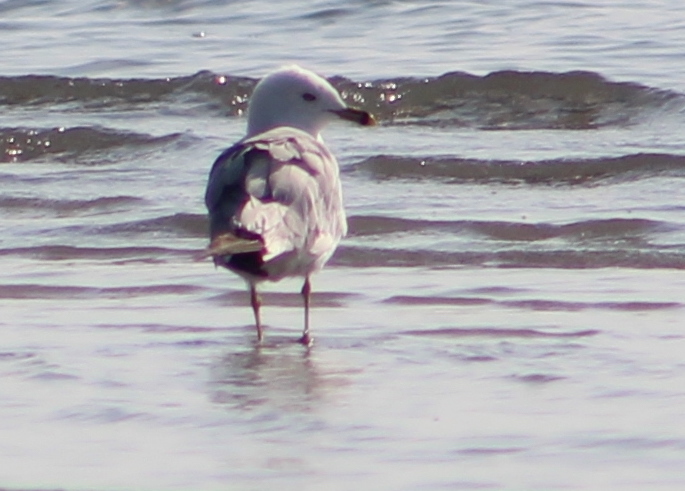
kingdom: Animalia
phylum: Chordata
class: Aves
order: Charadriiformes
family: Laridae
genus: Larus
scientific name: Larus delawarensis
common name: Ring-billed gull
